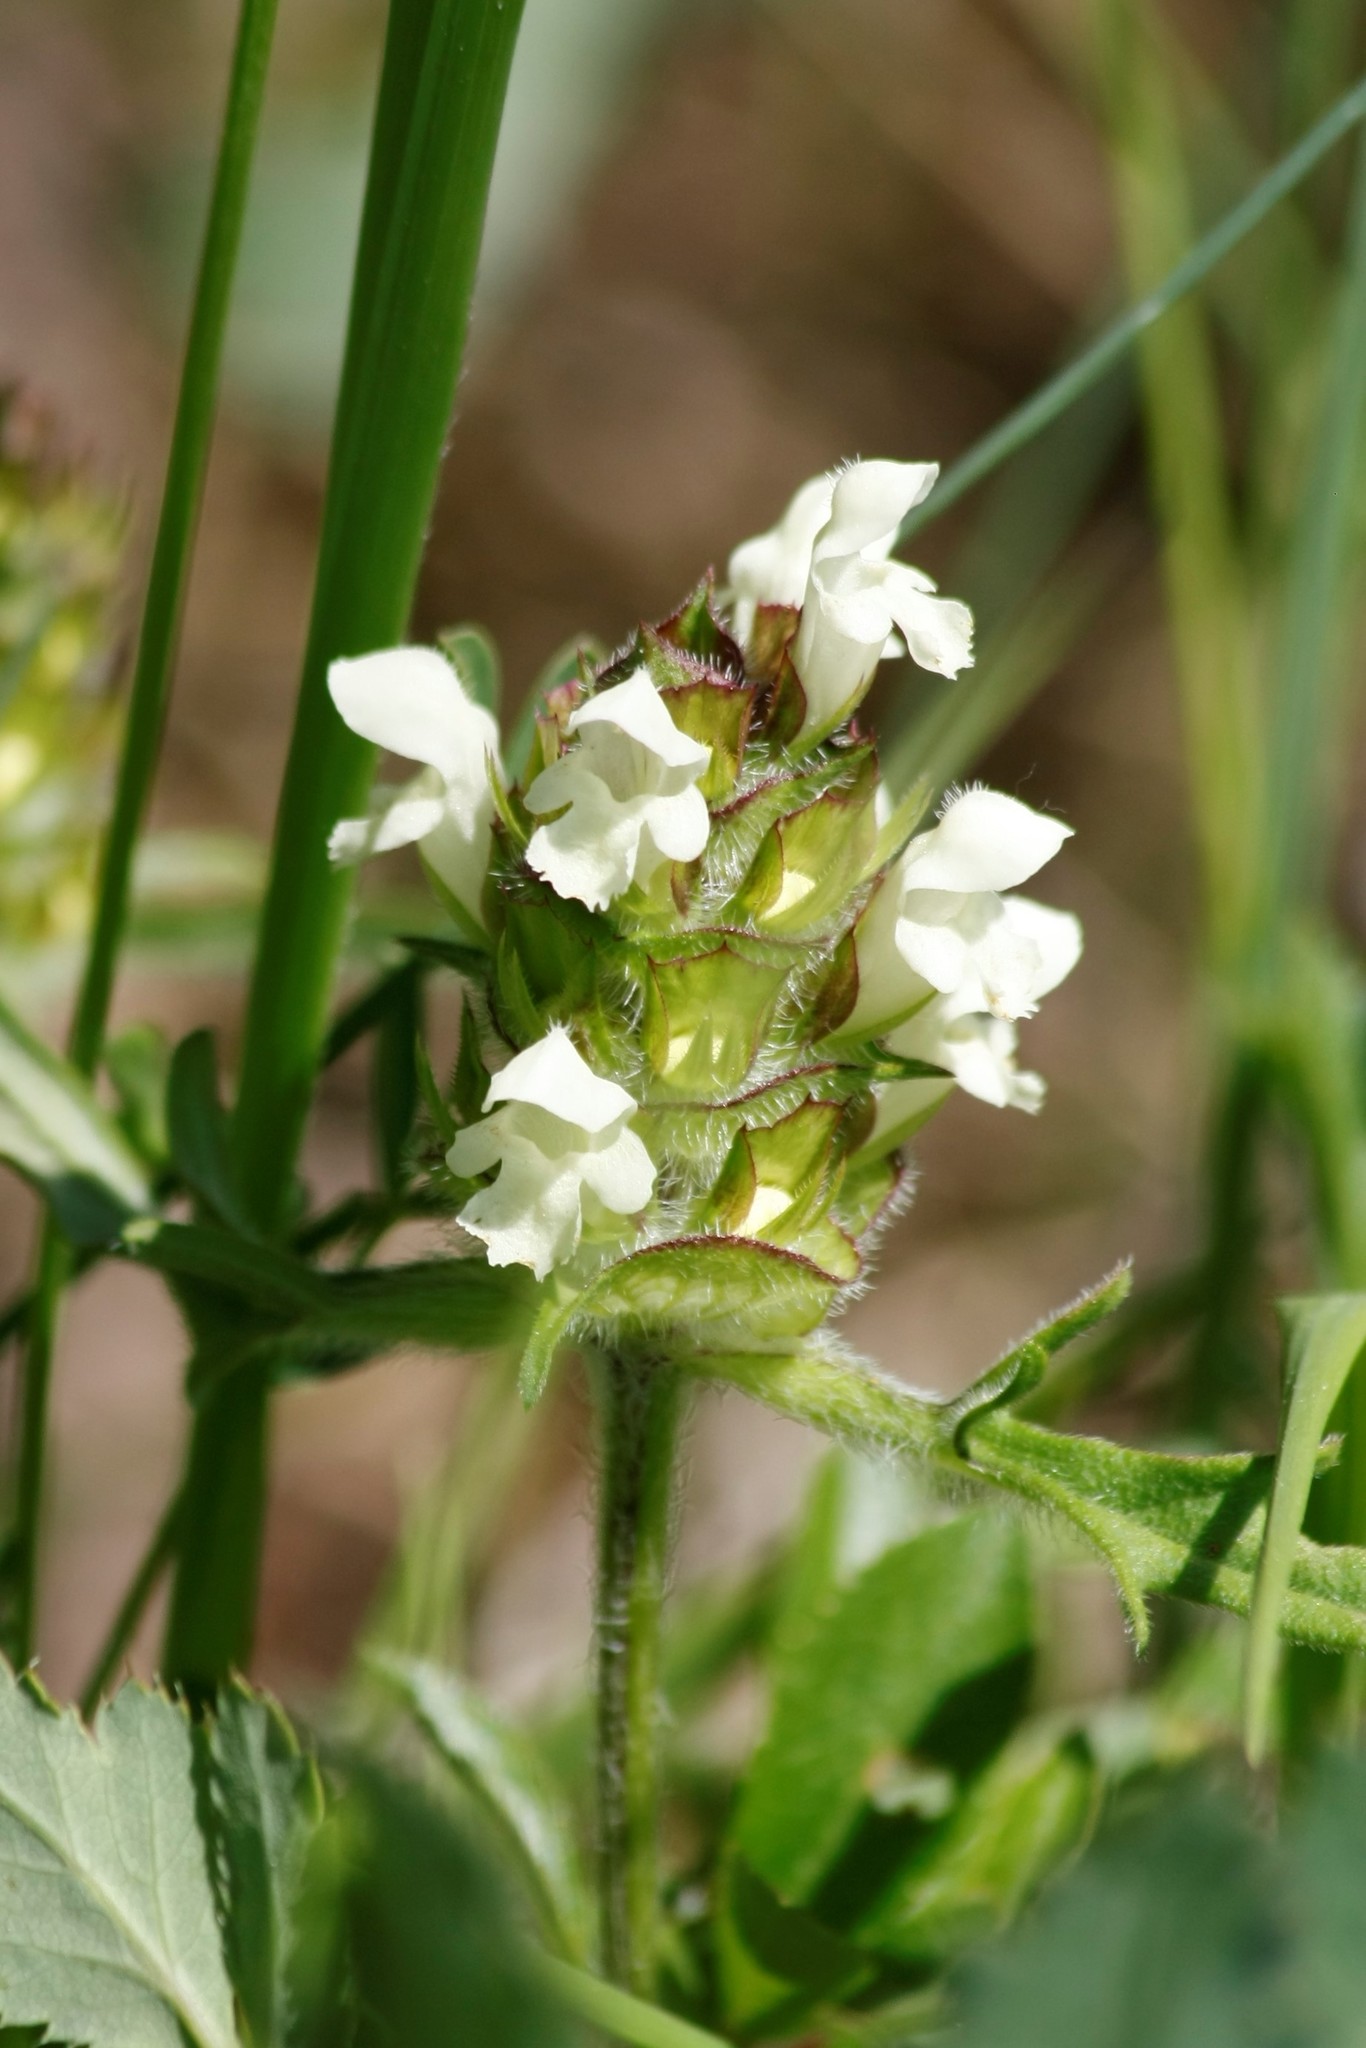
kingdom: Plantae
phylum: Tracheophyta
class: Magnoliopsida
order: Lamiales
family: Lamiaceae
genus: Prunella
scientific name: Prunella laciniata
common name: Cut-leaved selfheal
